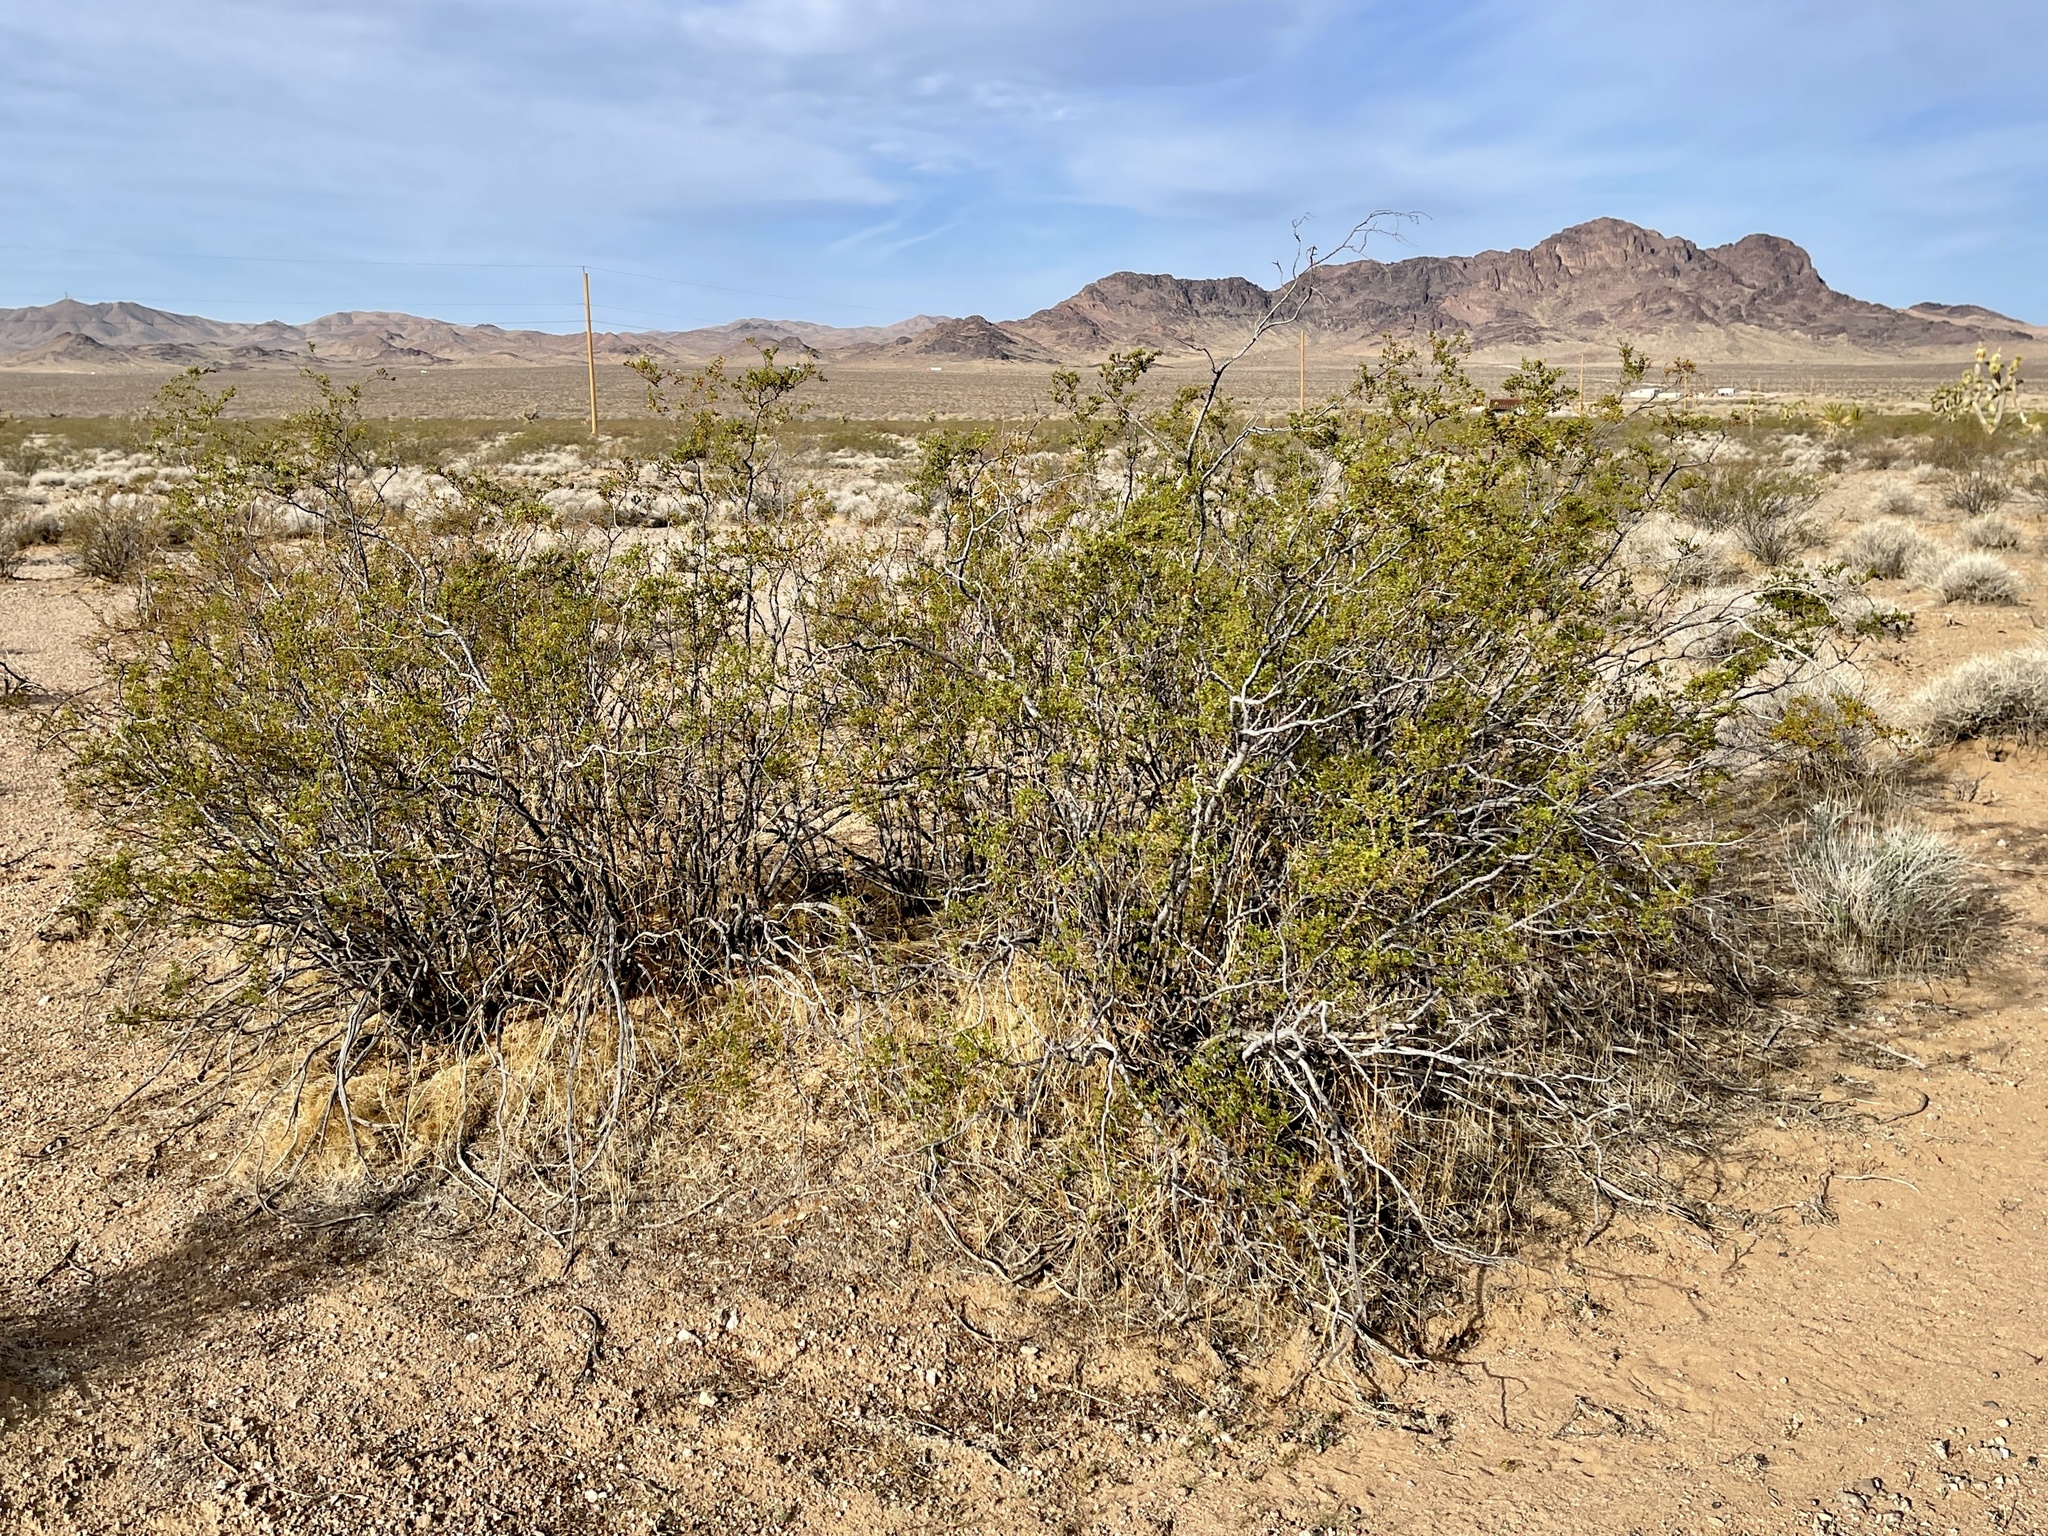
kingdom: Plantae
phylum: Tracheophyta
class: Magnoliopsida
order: Zygophyllales
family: Zygophyllaceae
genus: Larrea
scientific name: Larrea tridentata
